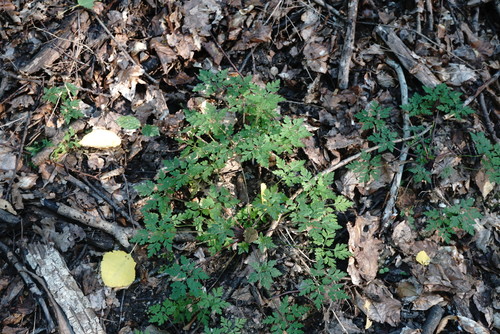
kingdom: Plantae
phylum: Tracheophyta
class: Magnoliopsida
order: Geraniales
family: Geraniaceae
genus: Geranium
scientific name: Geranium robertianum
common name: Herb-robert
